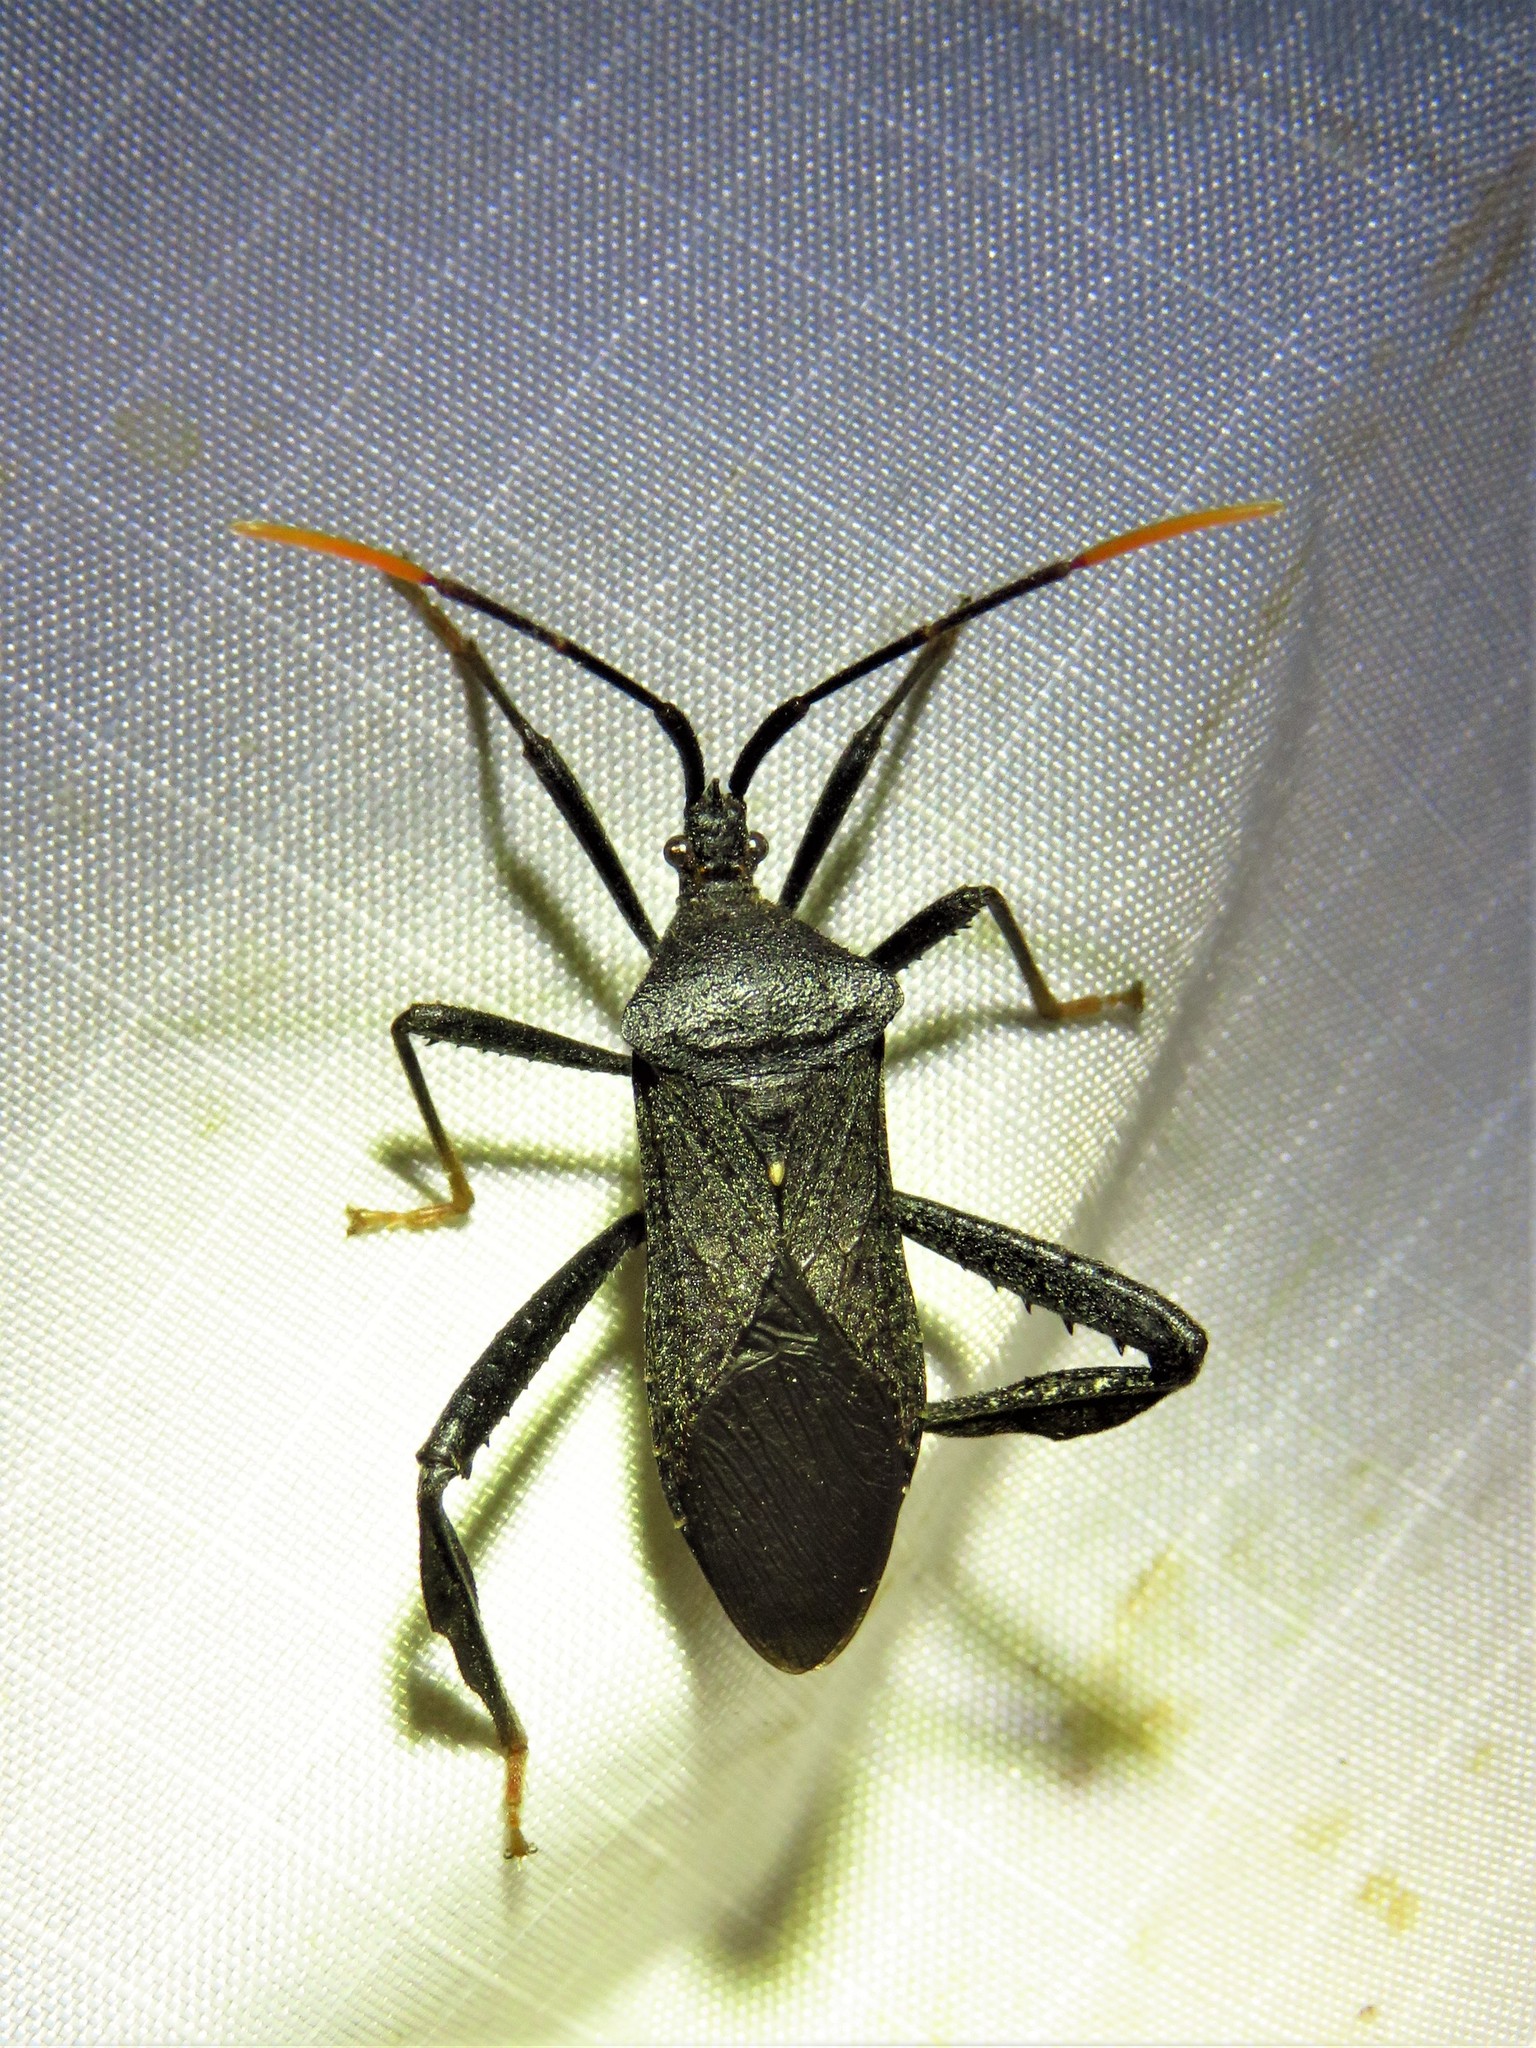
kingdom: Animalia
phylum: Arthropoda
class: Insecta
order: Hemiptera
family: Coreidae
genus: Acanthocephala
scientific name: Acanthocephala terminalis
